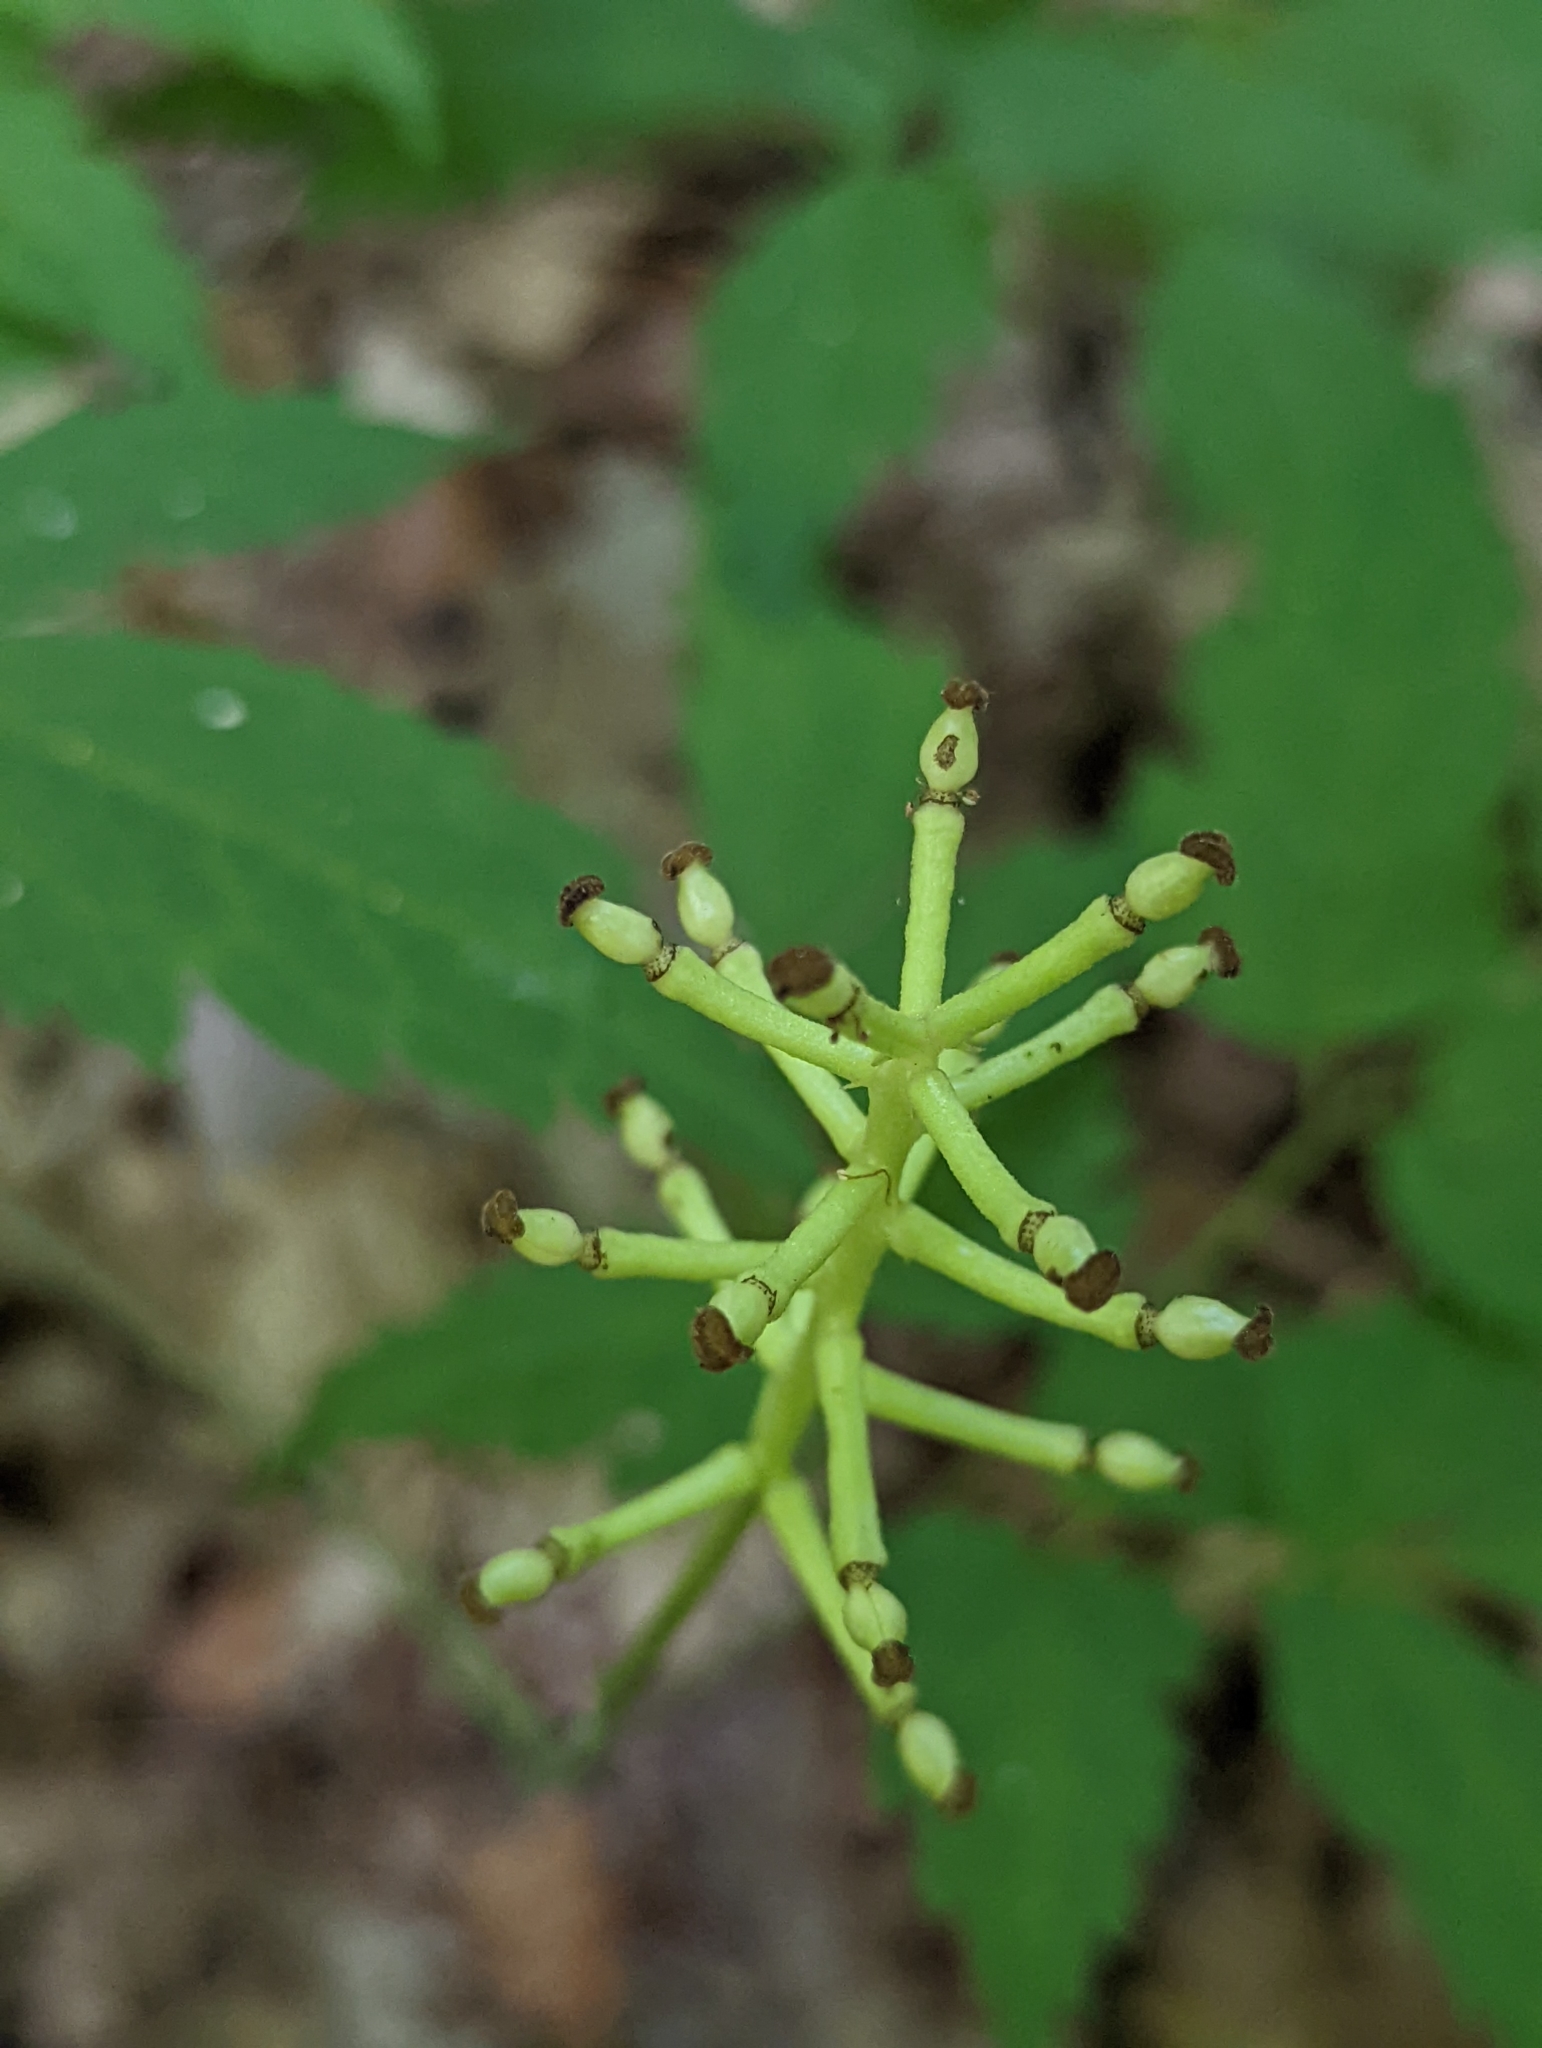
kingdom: Plantae
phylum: Tracheophyta
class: Magnoliopsida
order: Ranunculales
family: Ranunculaceae
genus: Actaea
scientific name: Actaea pachypoda
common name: Doll's-eyes
